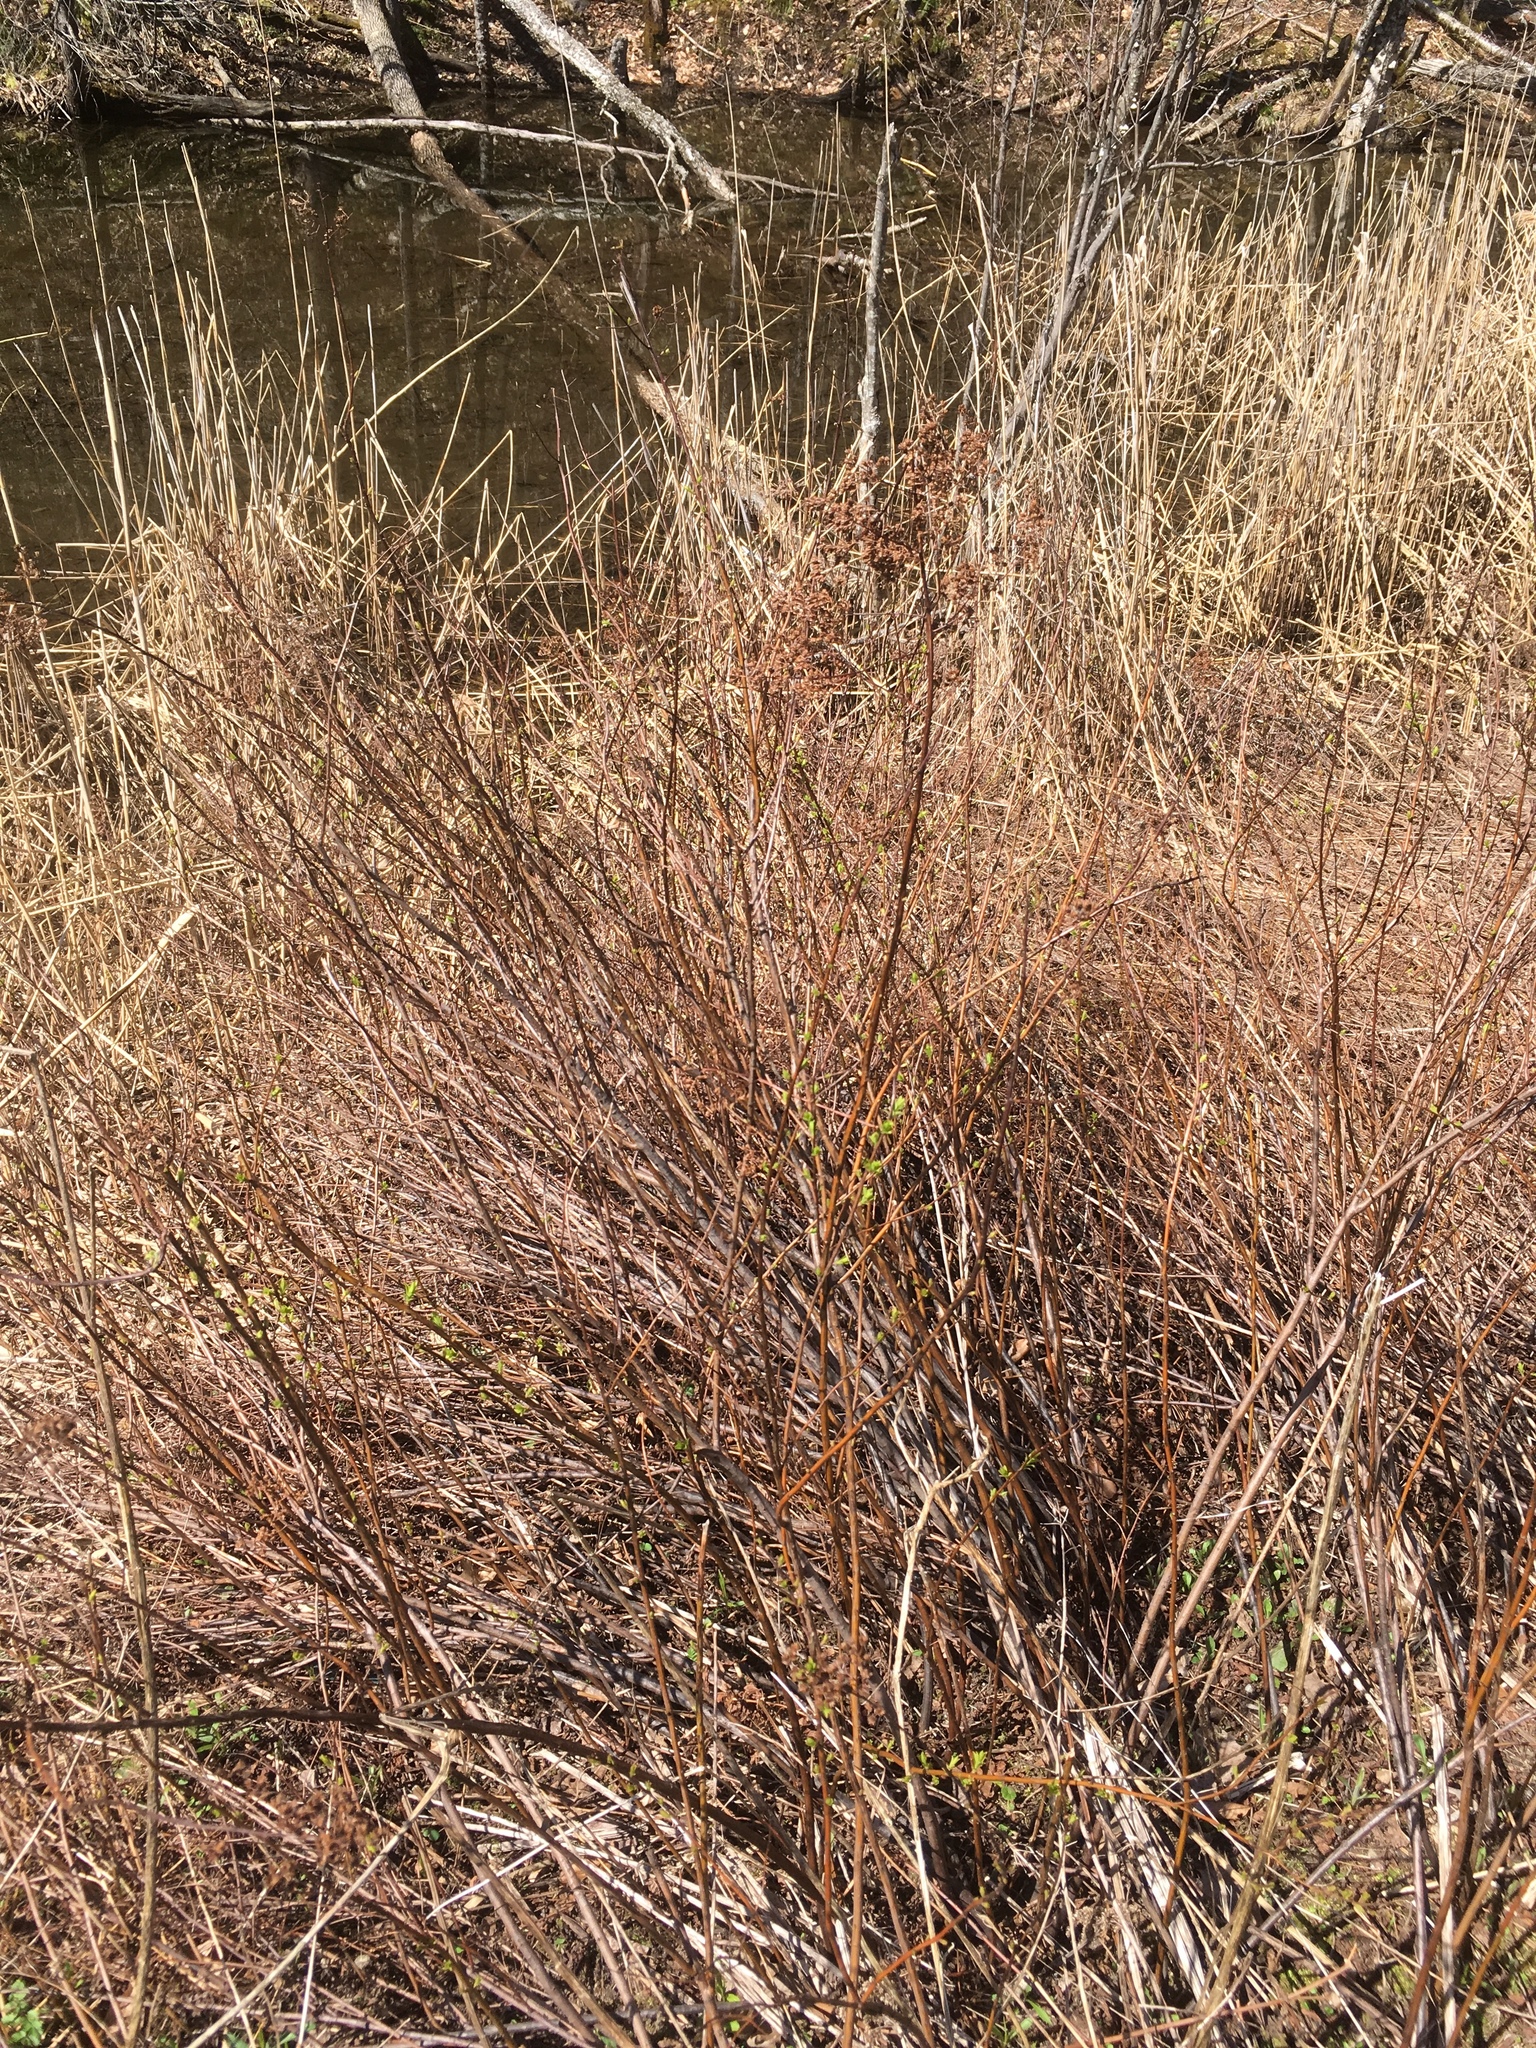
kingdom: Plantae
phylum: Tracheophyta
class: Magnoliopsida
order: Rosales
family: Rosaceae
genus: Spiraea
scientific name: Spiraea alba
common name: Pale bridewort
